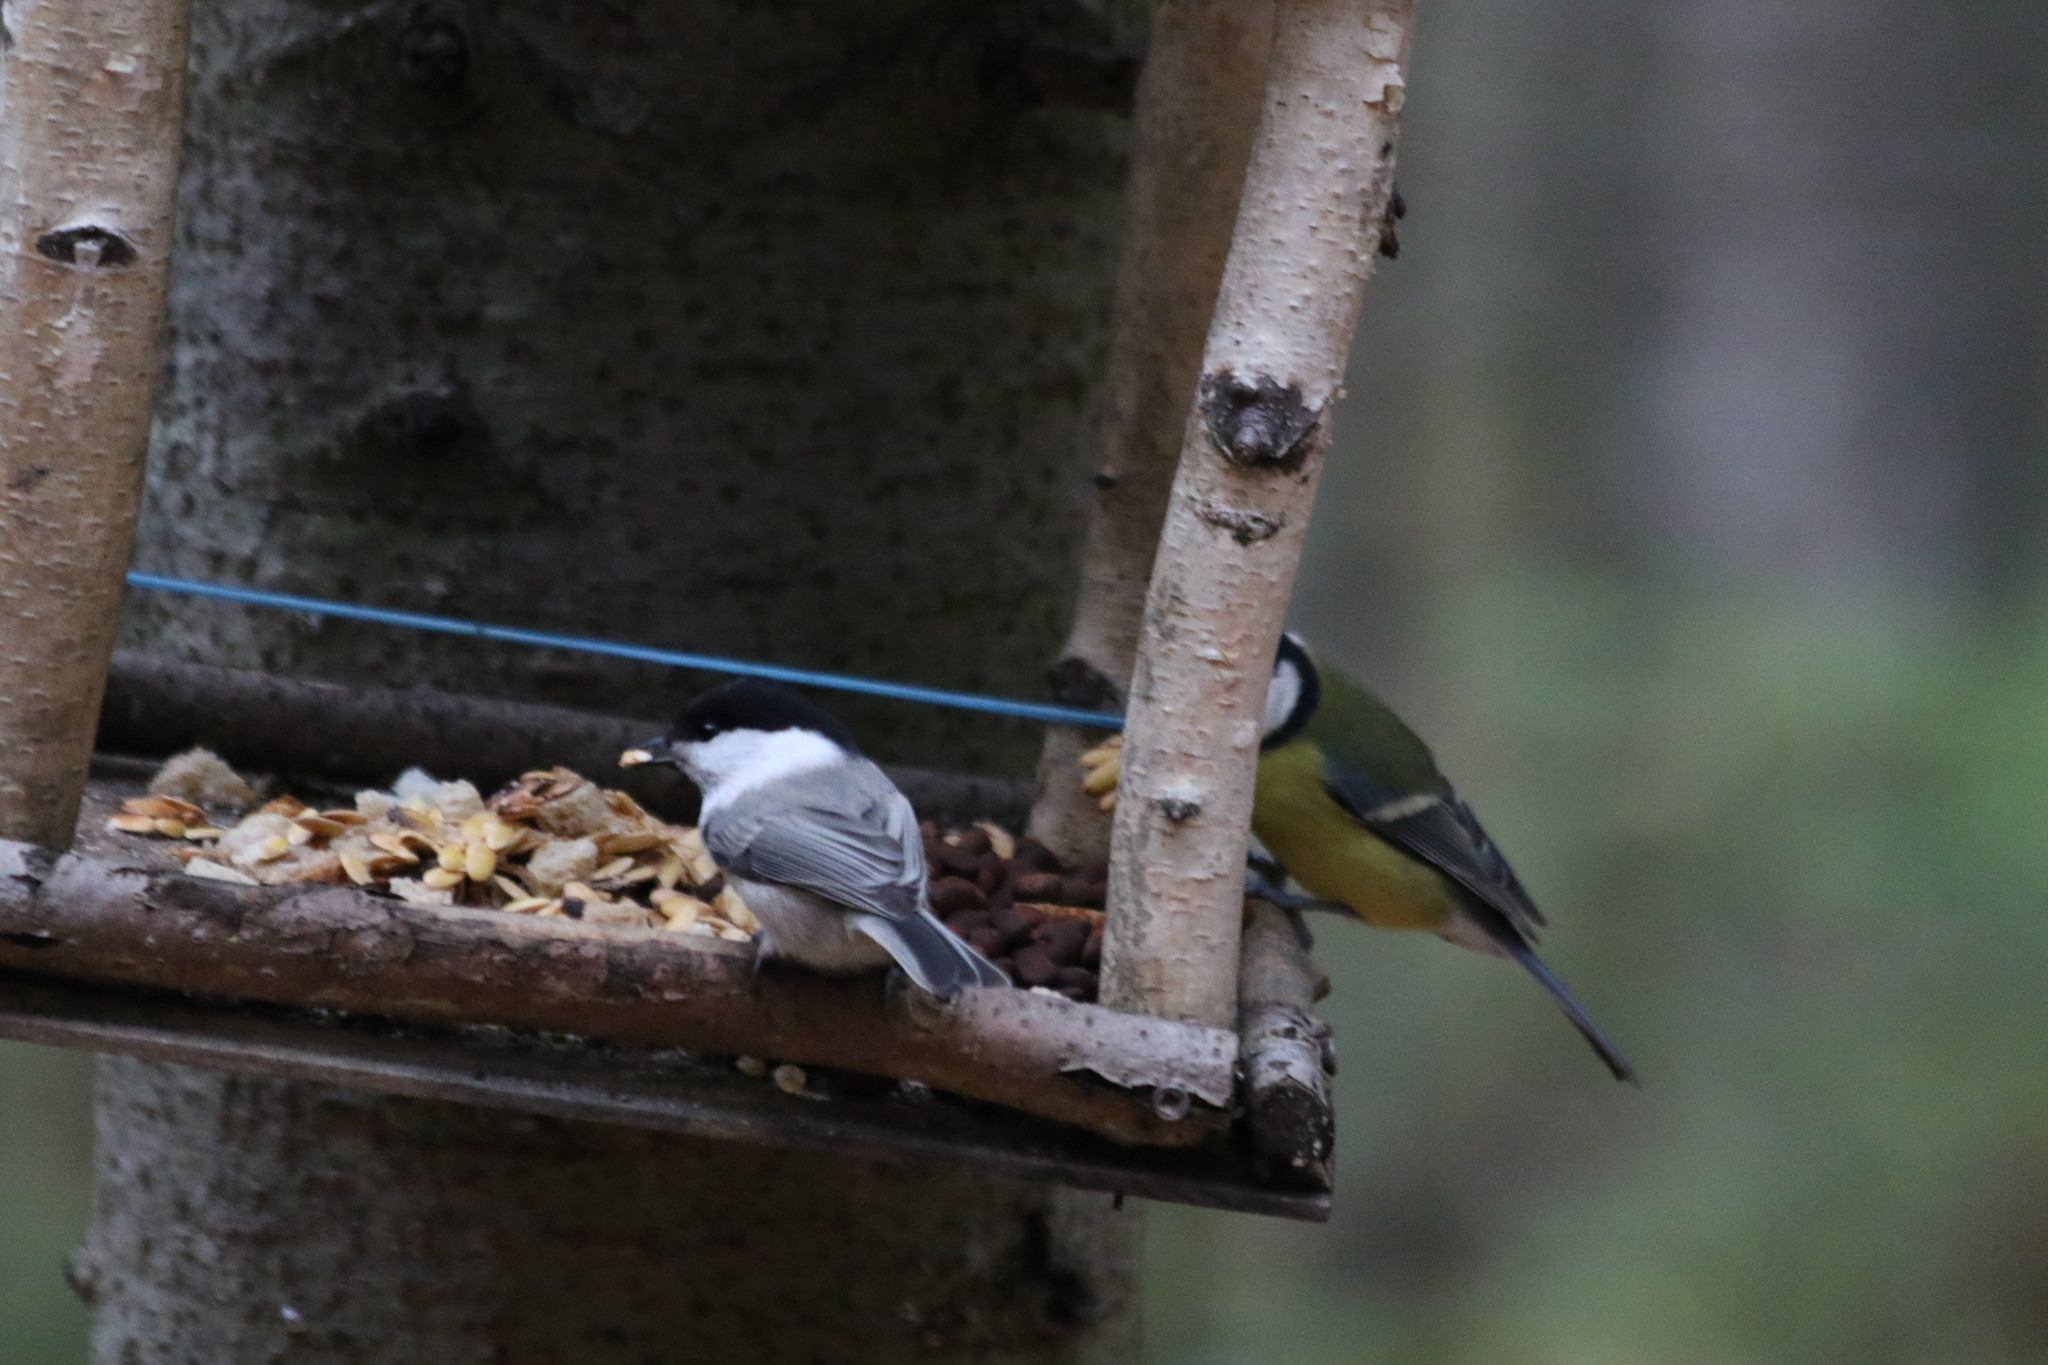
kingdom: Animalia
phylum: Chordata
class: Aves
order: Passeriformes
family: Paridae
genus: Poecile
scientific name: Poecile montanus
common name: Willow tit
